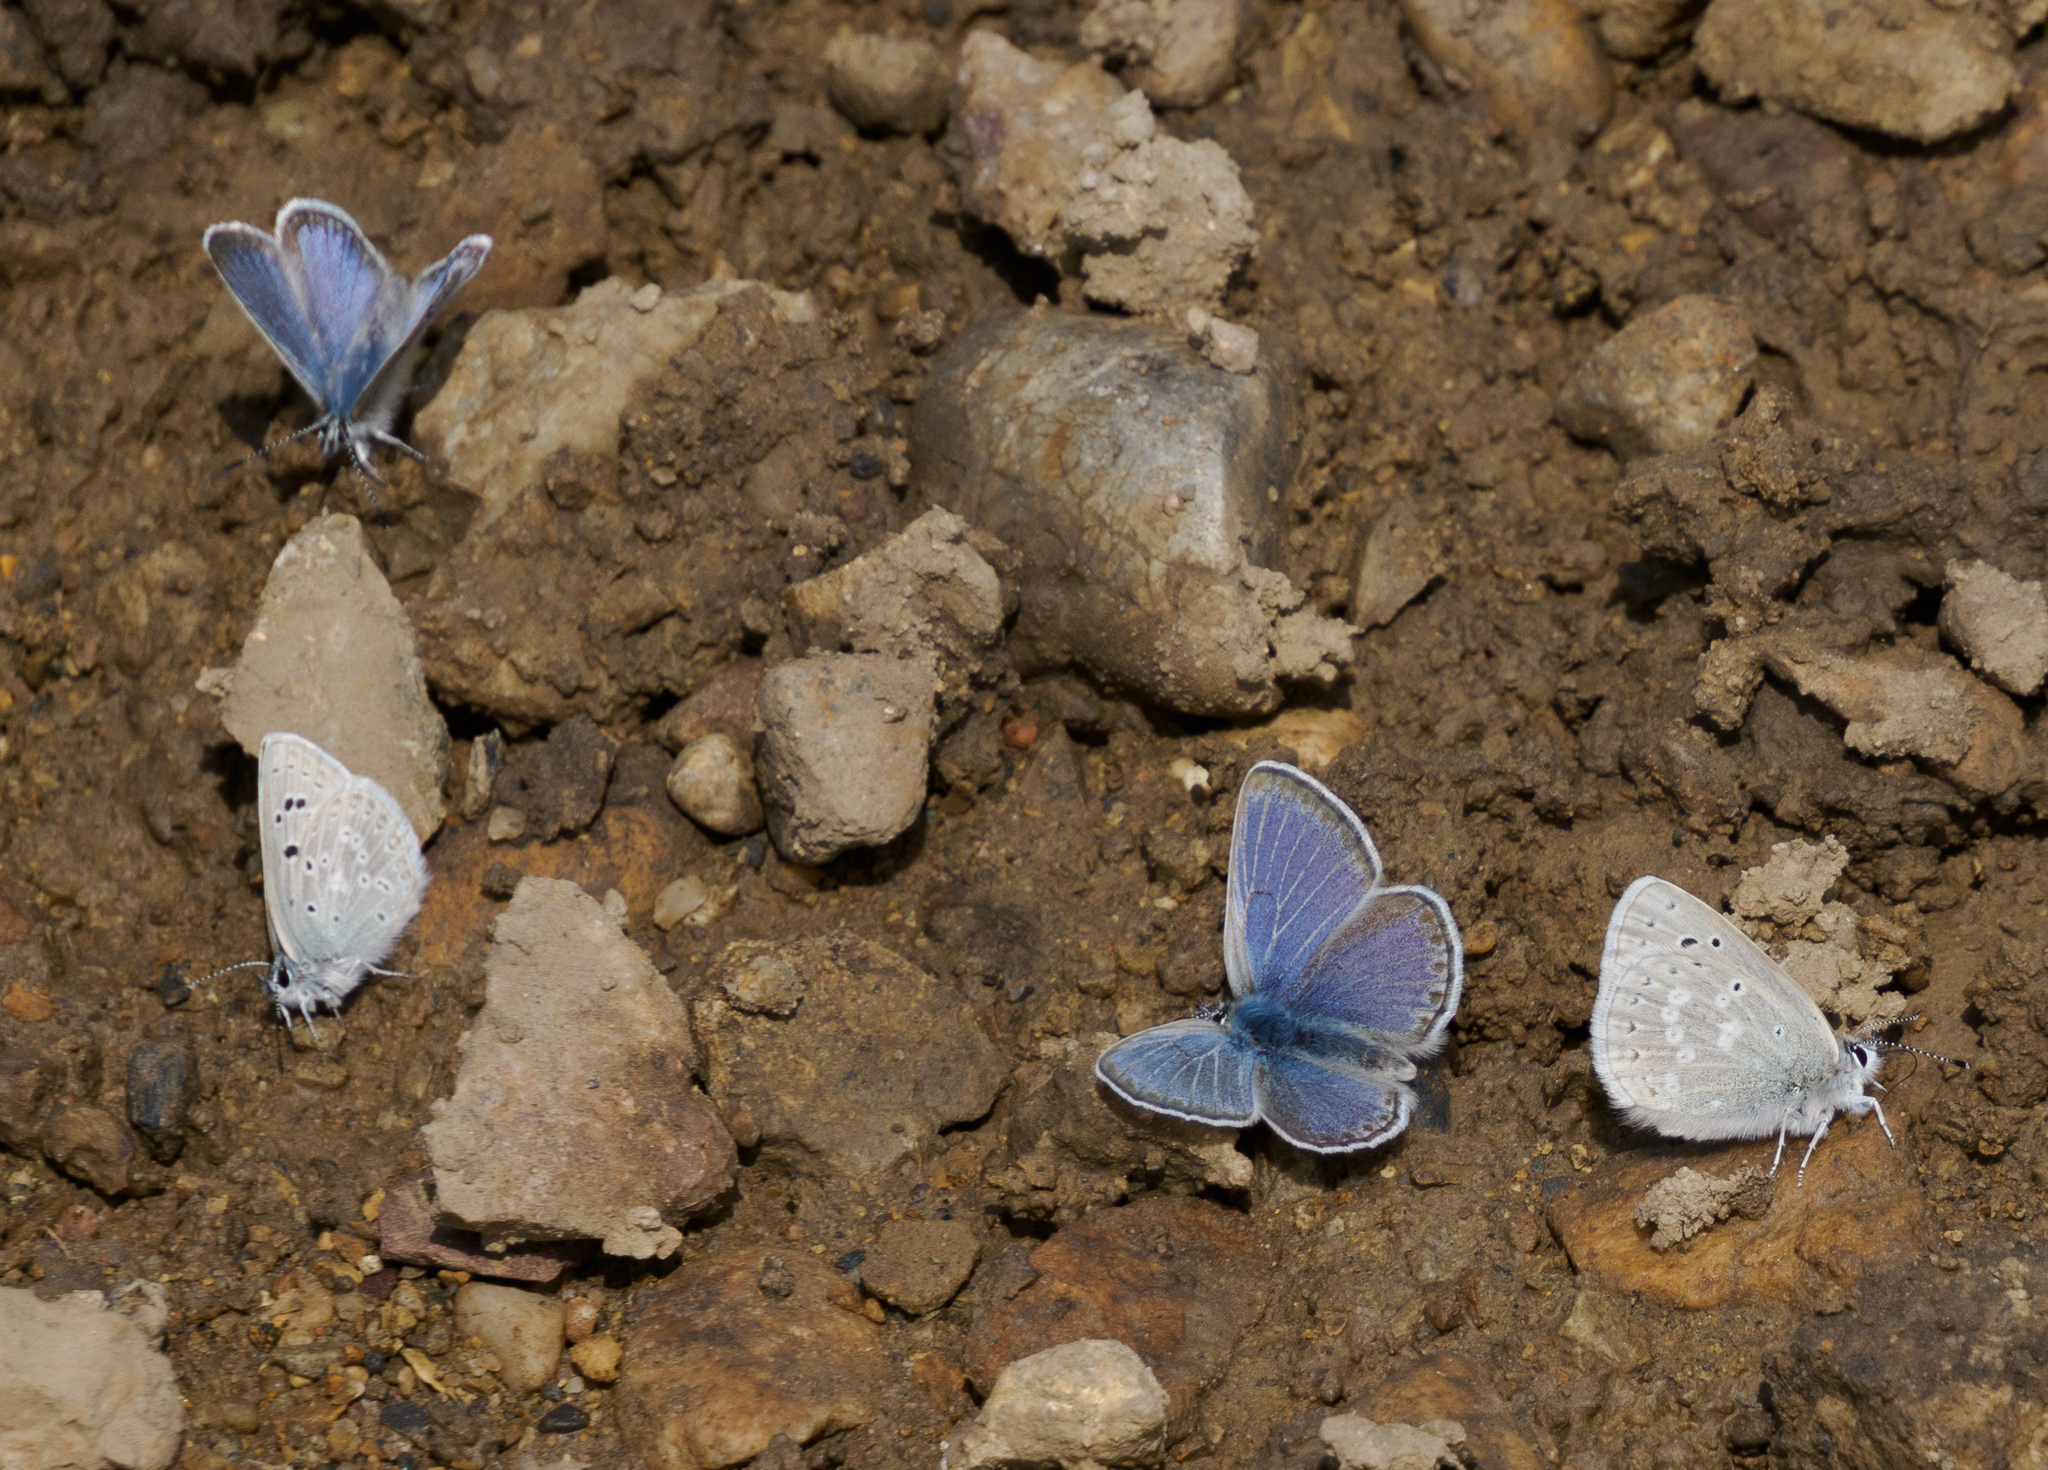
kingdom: Animalia
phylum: Arthropoda
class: Insecta
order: Lepidoptera
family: Lycaenidae
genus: Icaricia
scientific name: Icaricia icarioides
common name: Boisduval's blue
